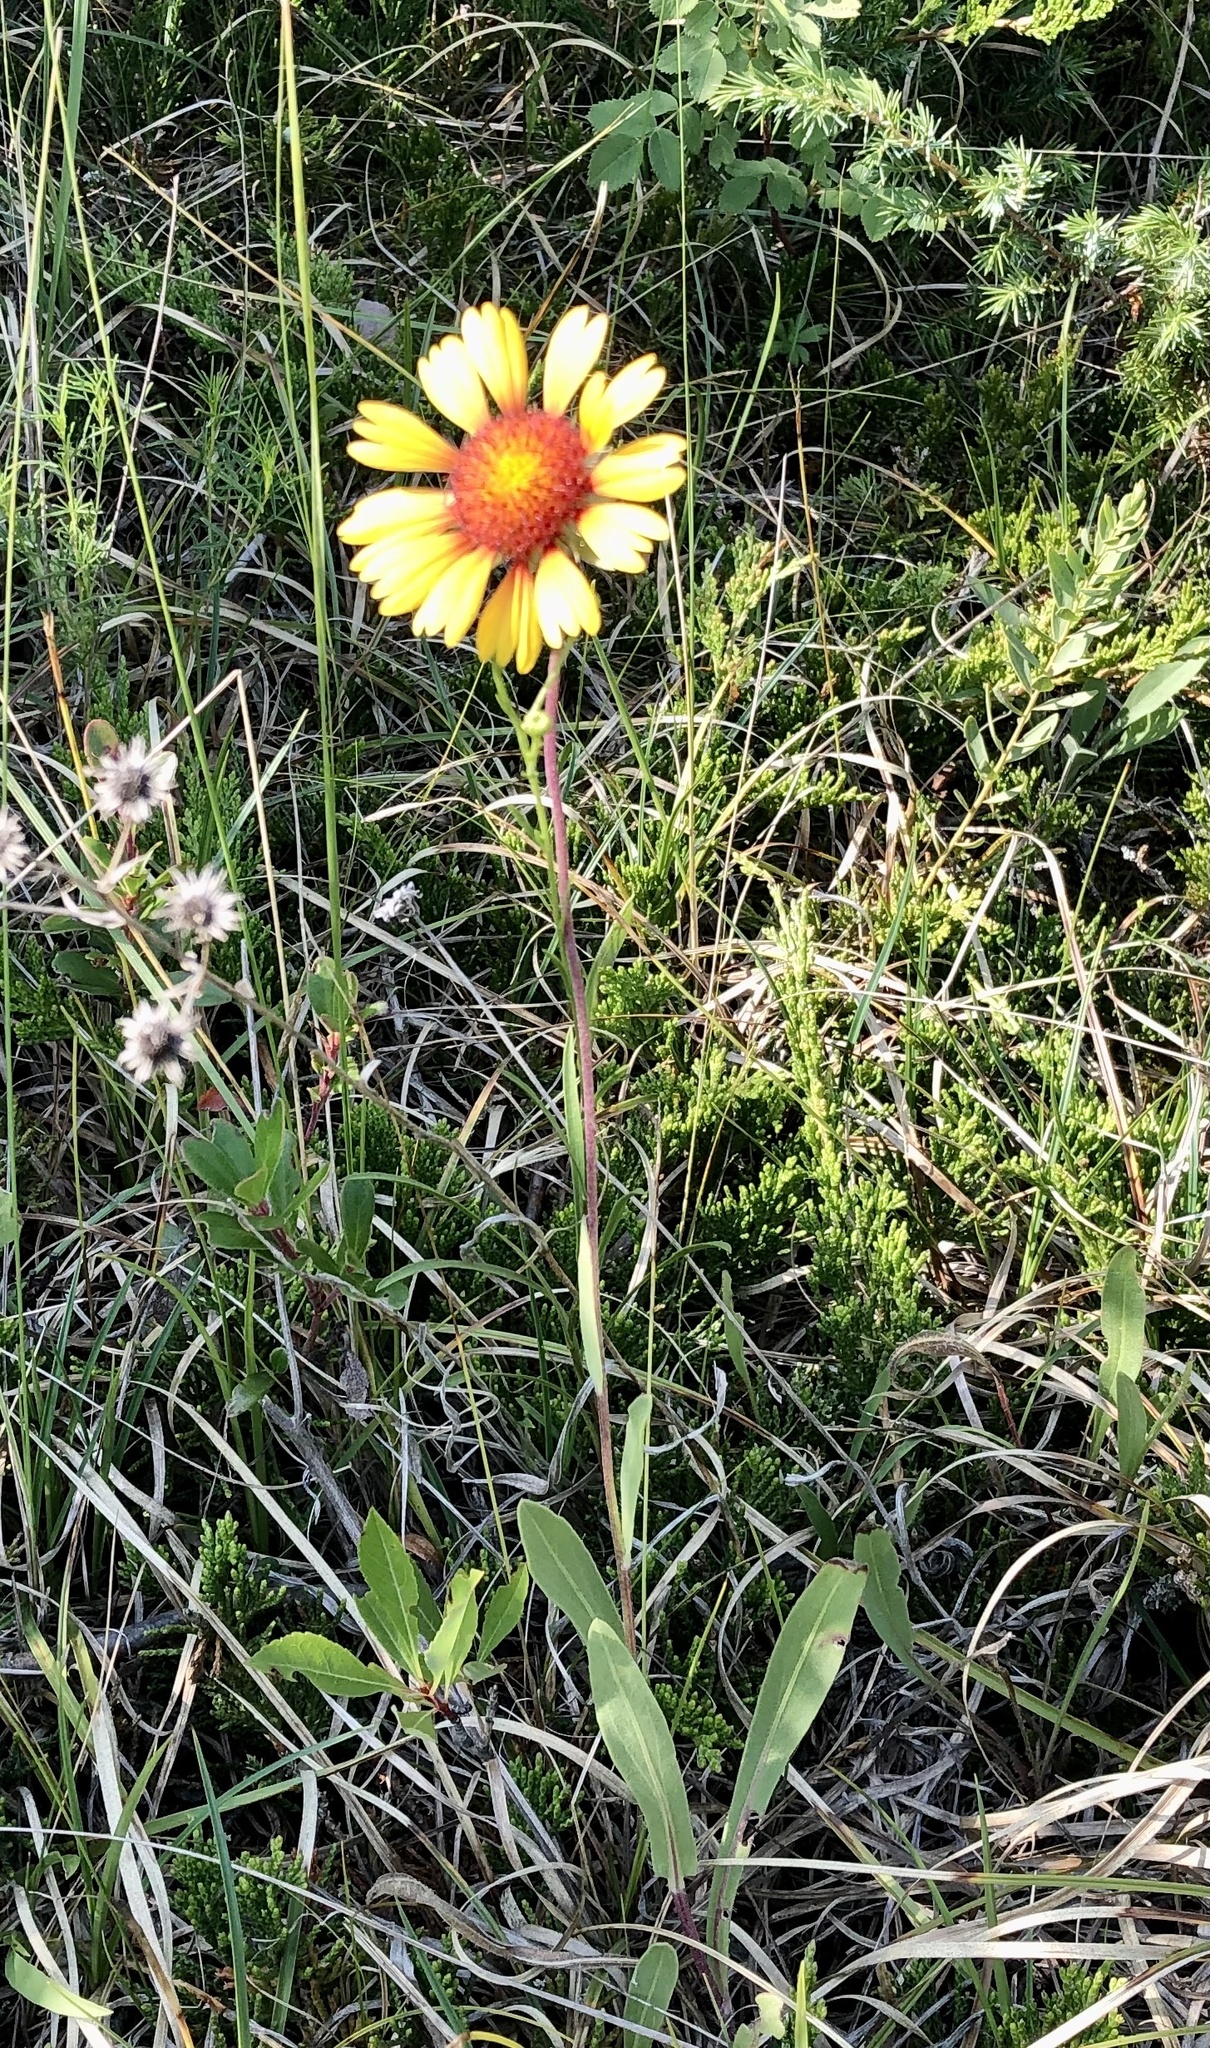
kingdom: Plantae
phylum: Tracheophyta
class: Magnoliopsida
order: Asterales
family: Asteraceae
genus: Gaillardia
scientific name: Gaillardia aristata
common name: Blanket-flower
